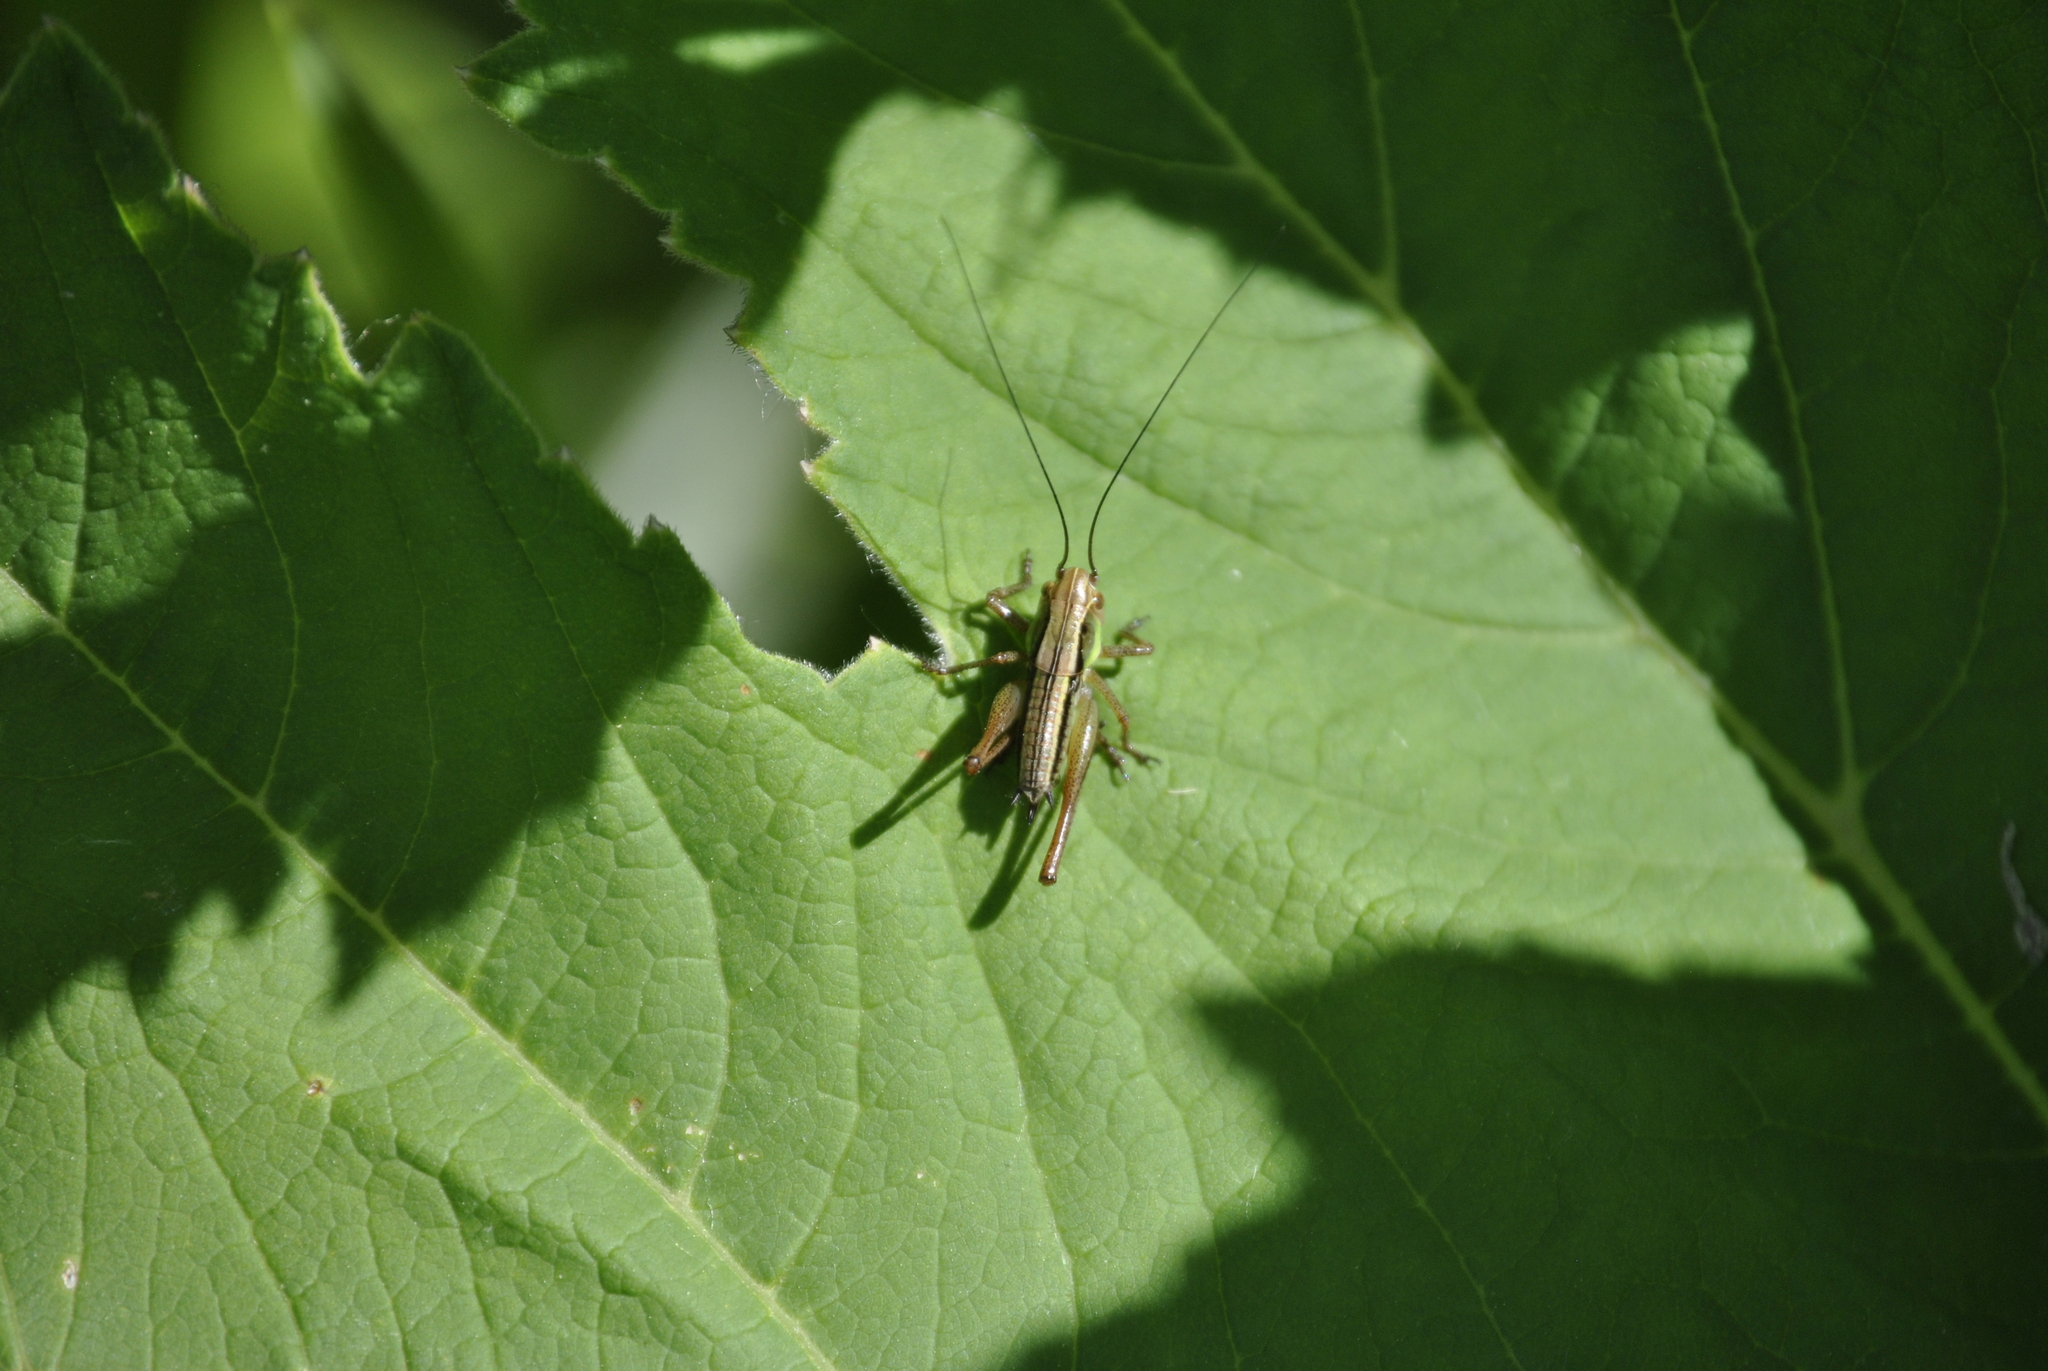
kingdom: Animalia
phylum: Arthropoda
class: Insecta
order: Orthoptera
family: Tettigoniidae
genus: Roeseliana
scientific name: Roeseliana roeselii
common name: Roesel's bush cricket
